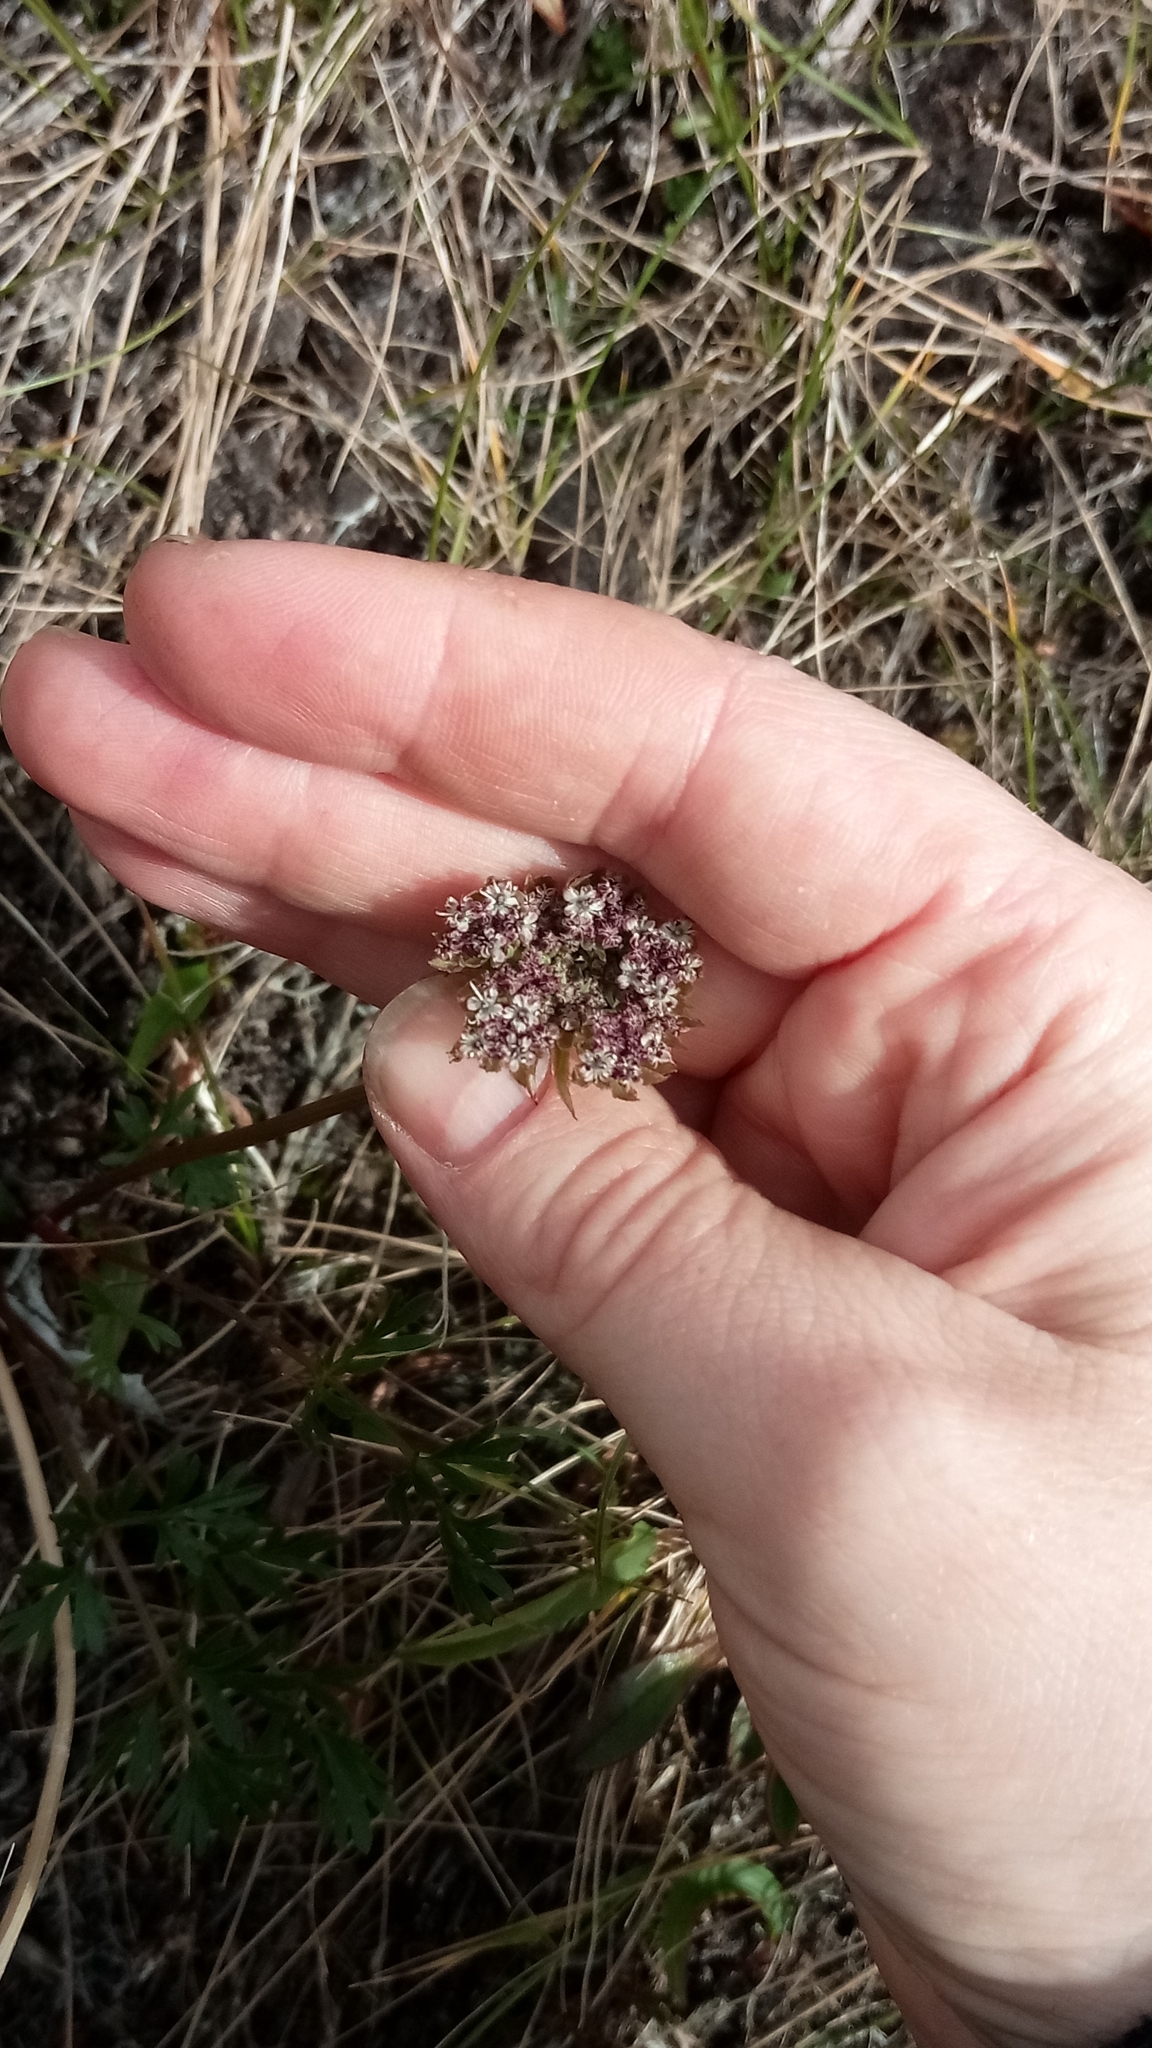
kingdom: Plantae
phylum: Tracheophyta
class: Magnoliopsida
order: Apiales
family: Apiaceae
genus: Pachypleurum
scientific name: Pachypleurum mutellinoides
